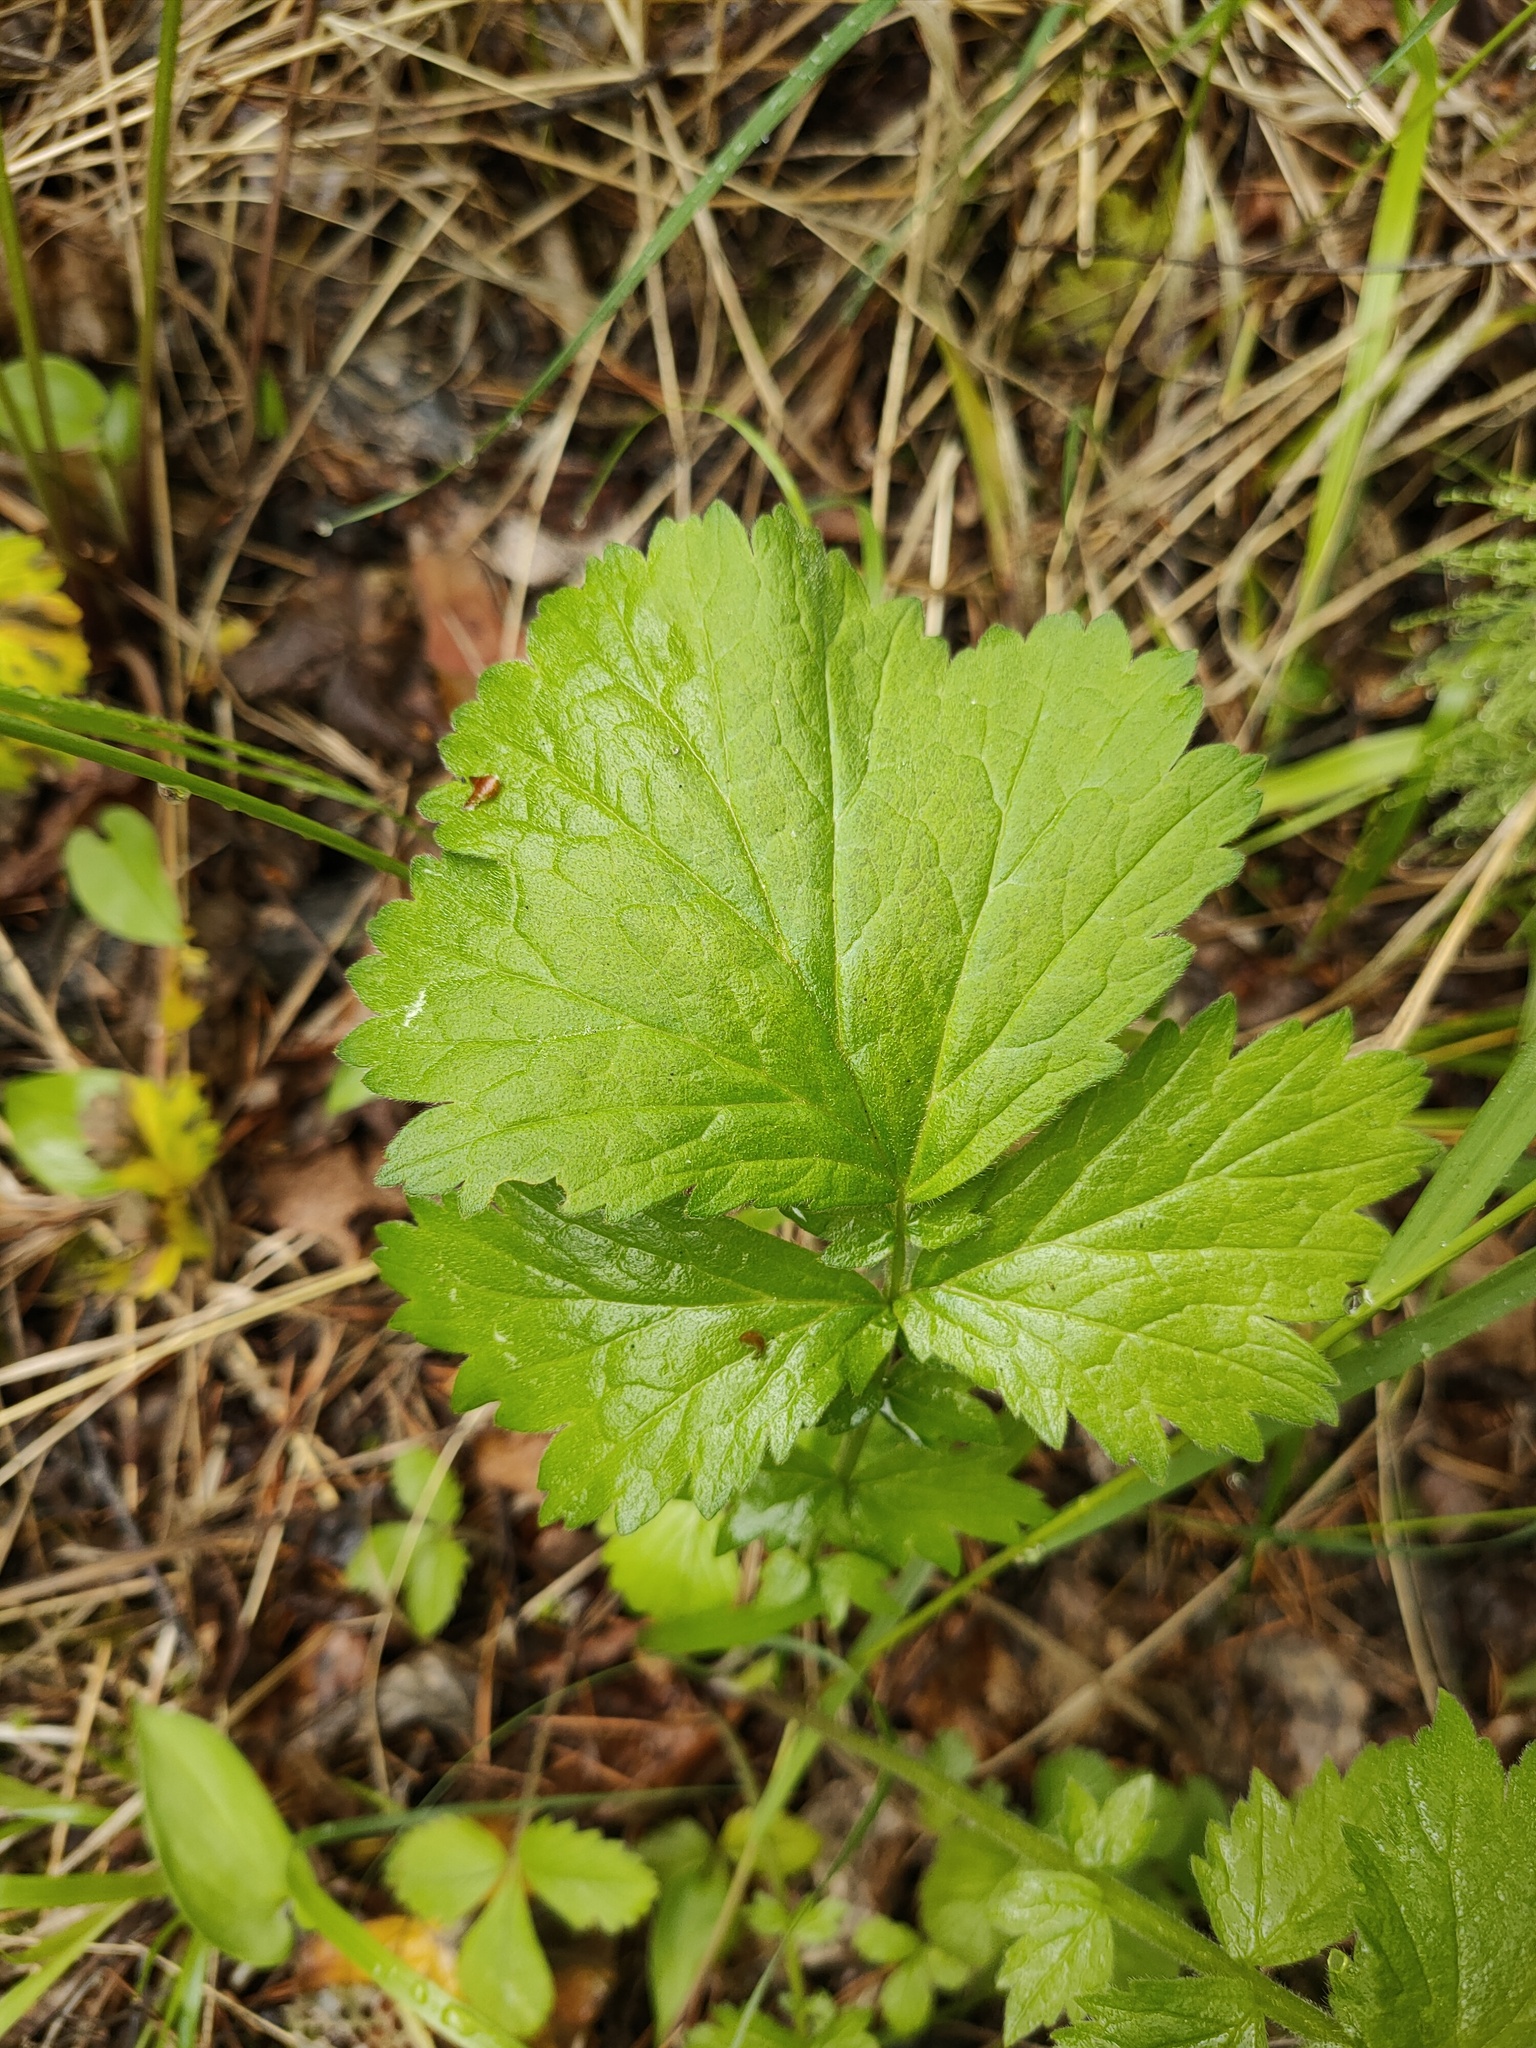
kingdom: Plantae
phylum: Tracheophyta
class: Magnoliopsida
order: Rosales
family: Rosaceae
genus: Geum
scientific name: Geum
